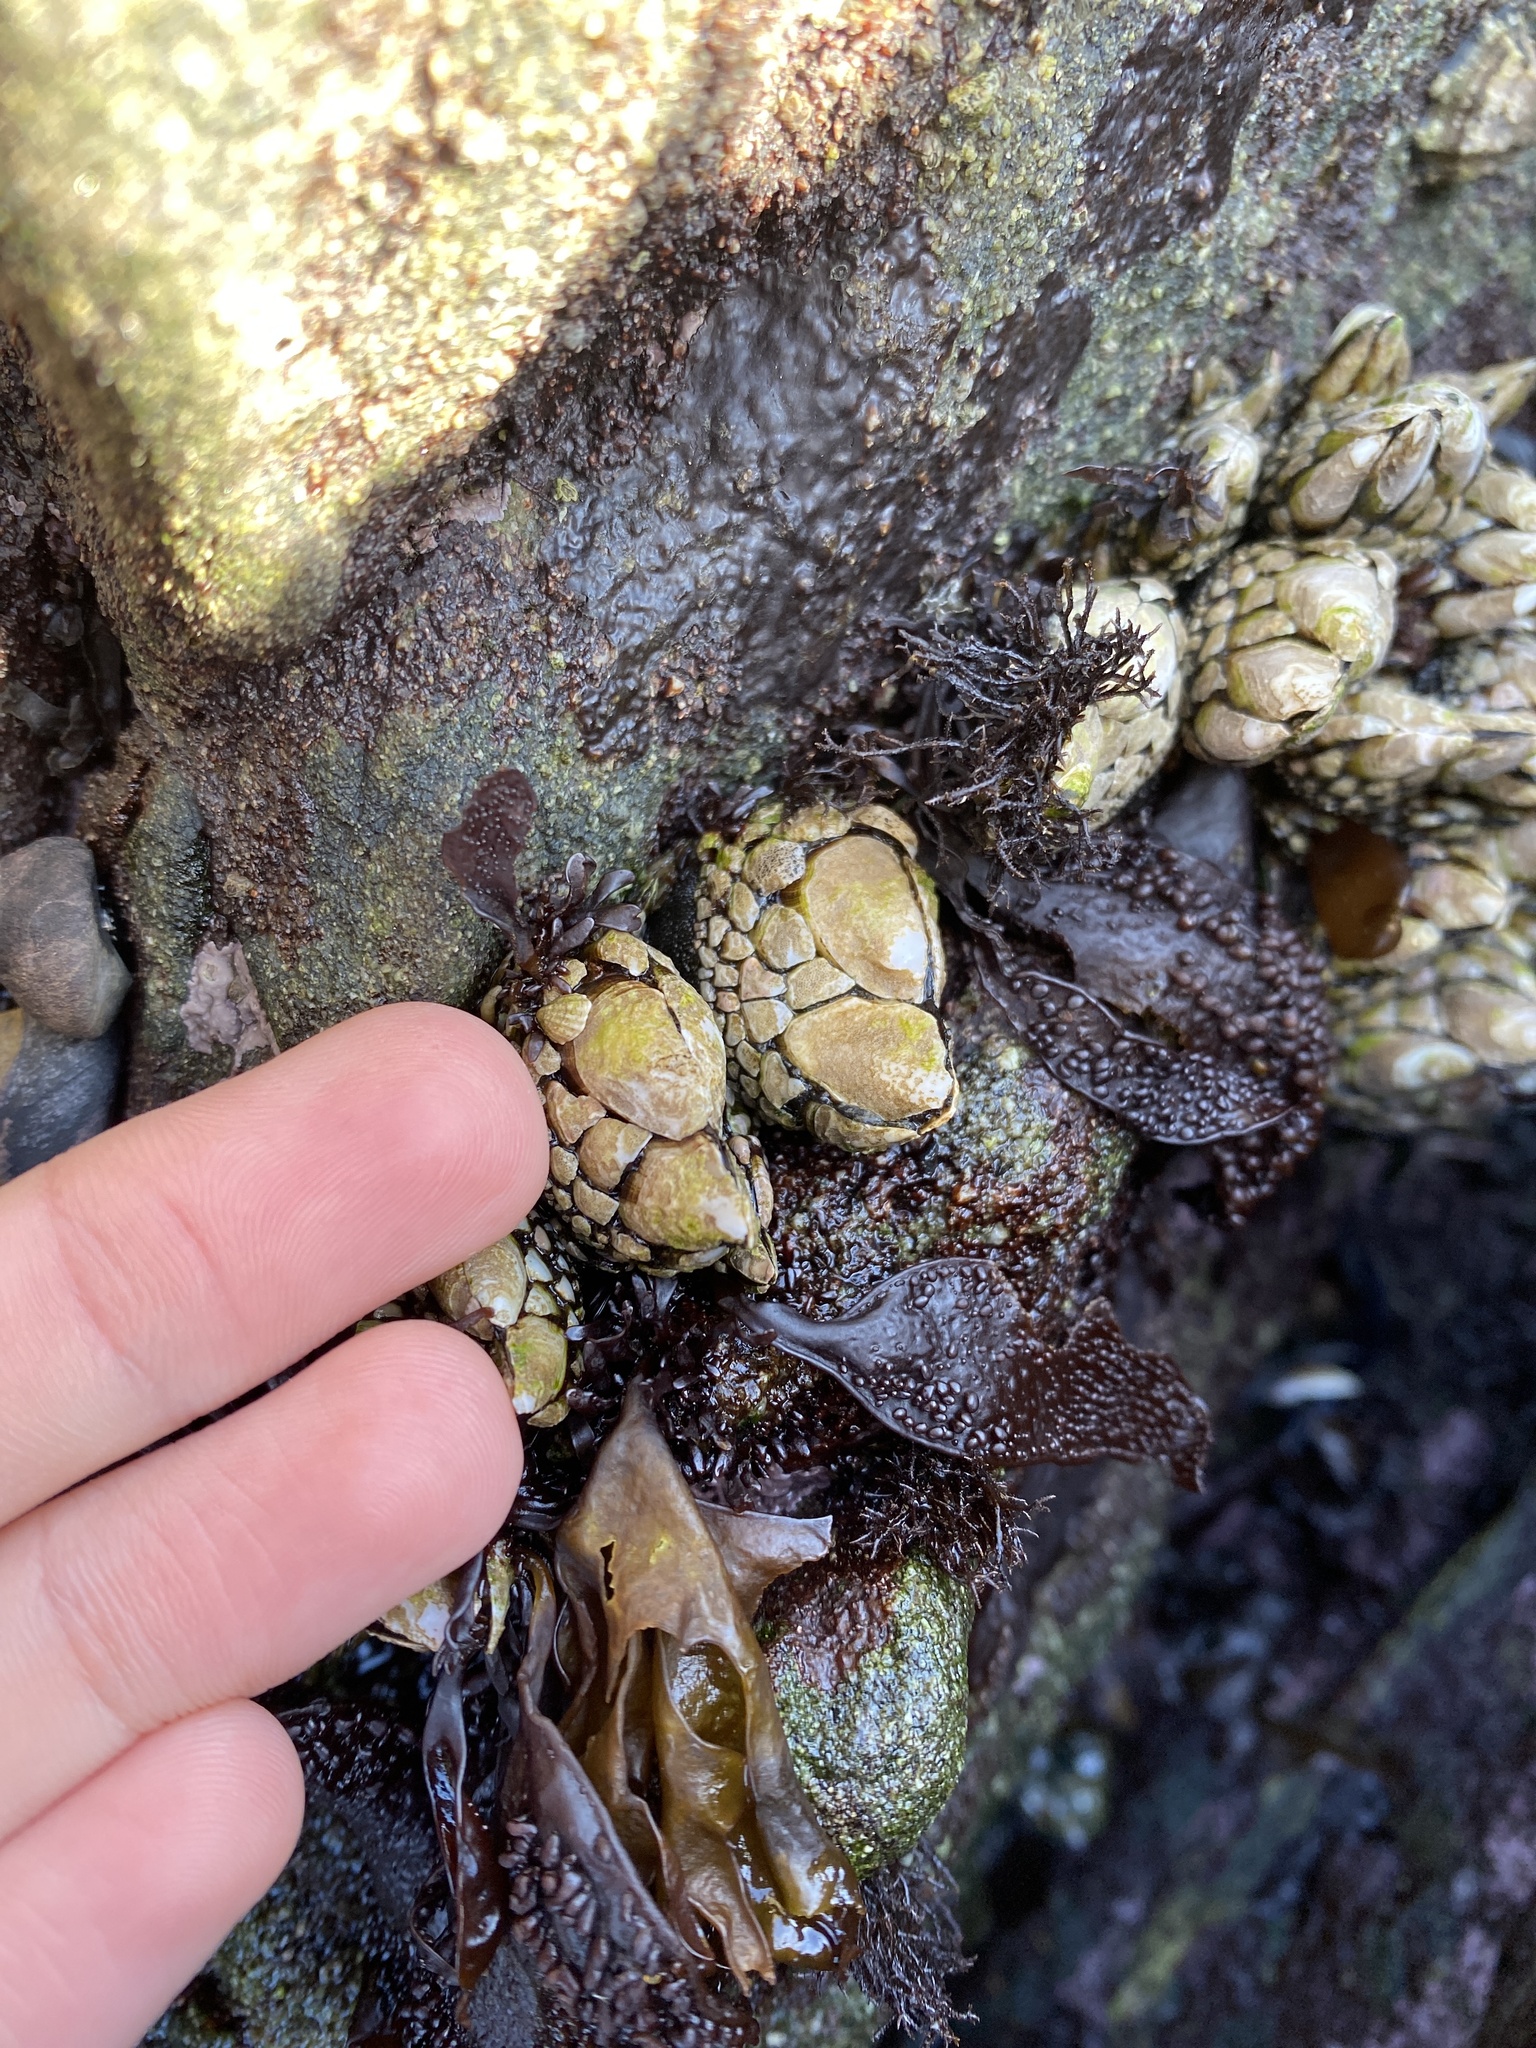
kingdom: Animalia
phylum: Arthropoda
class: Maxillopoda
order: Pedunculata
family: Pollicipedidae
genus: Pollicipes
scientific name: Pollicipes polymerus
